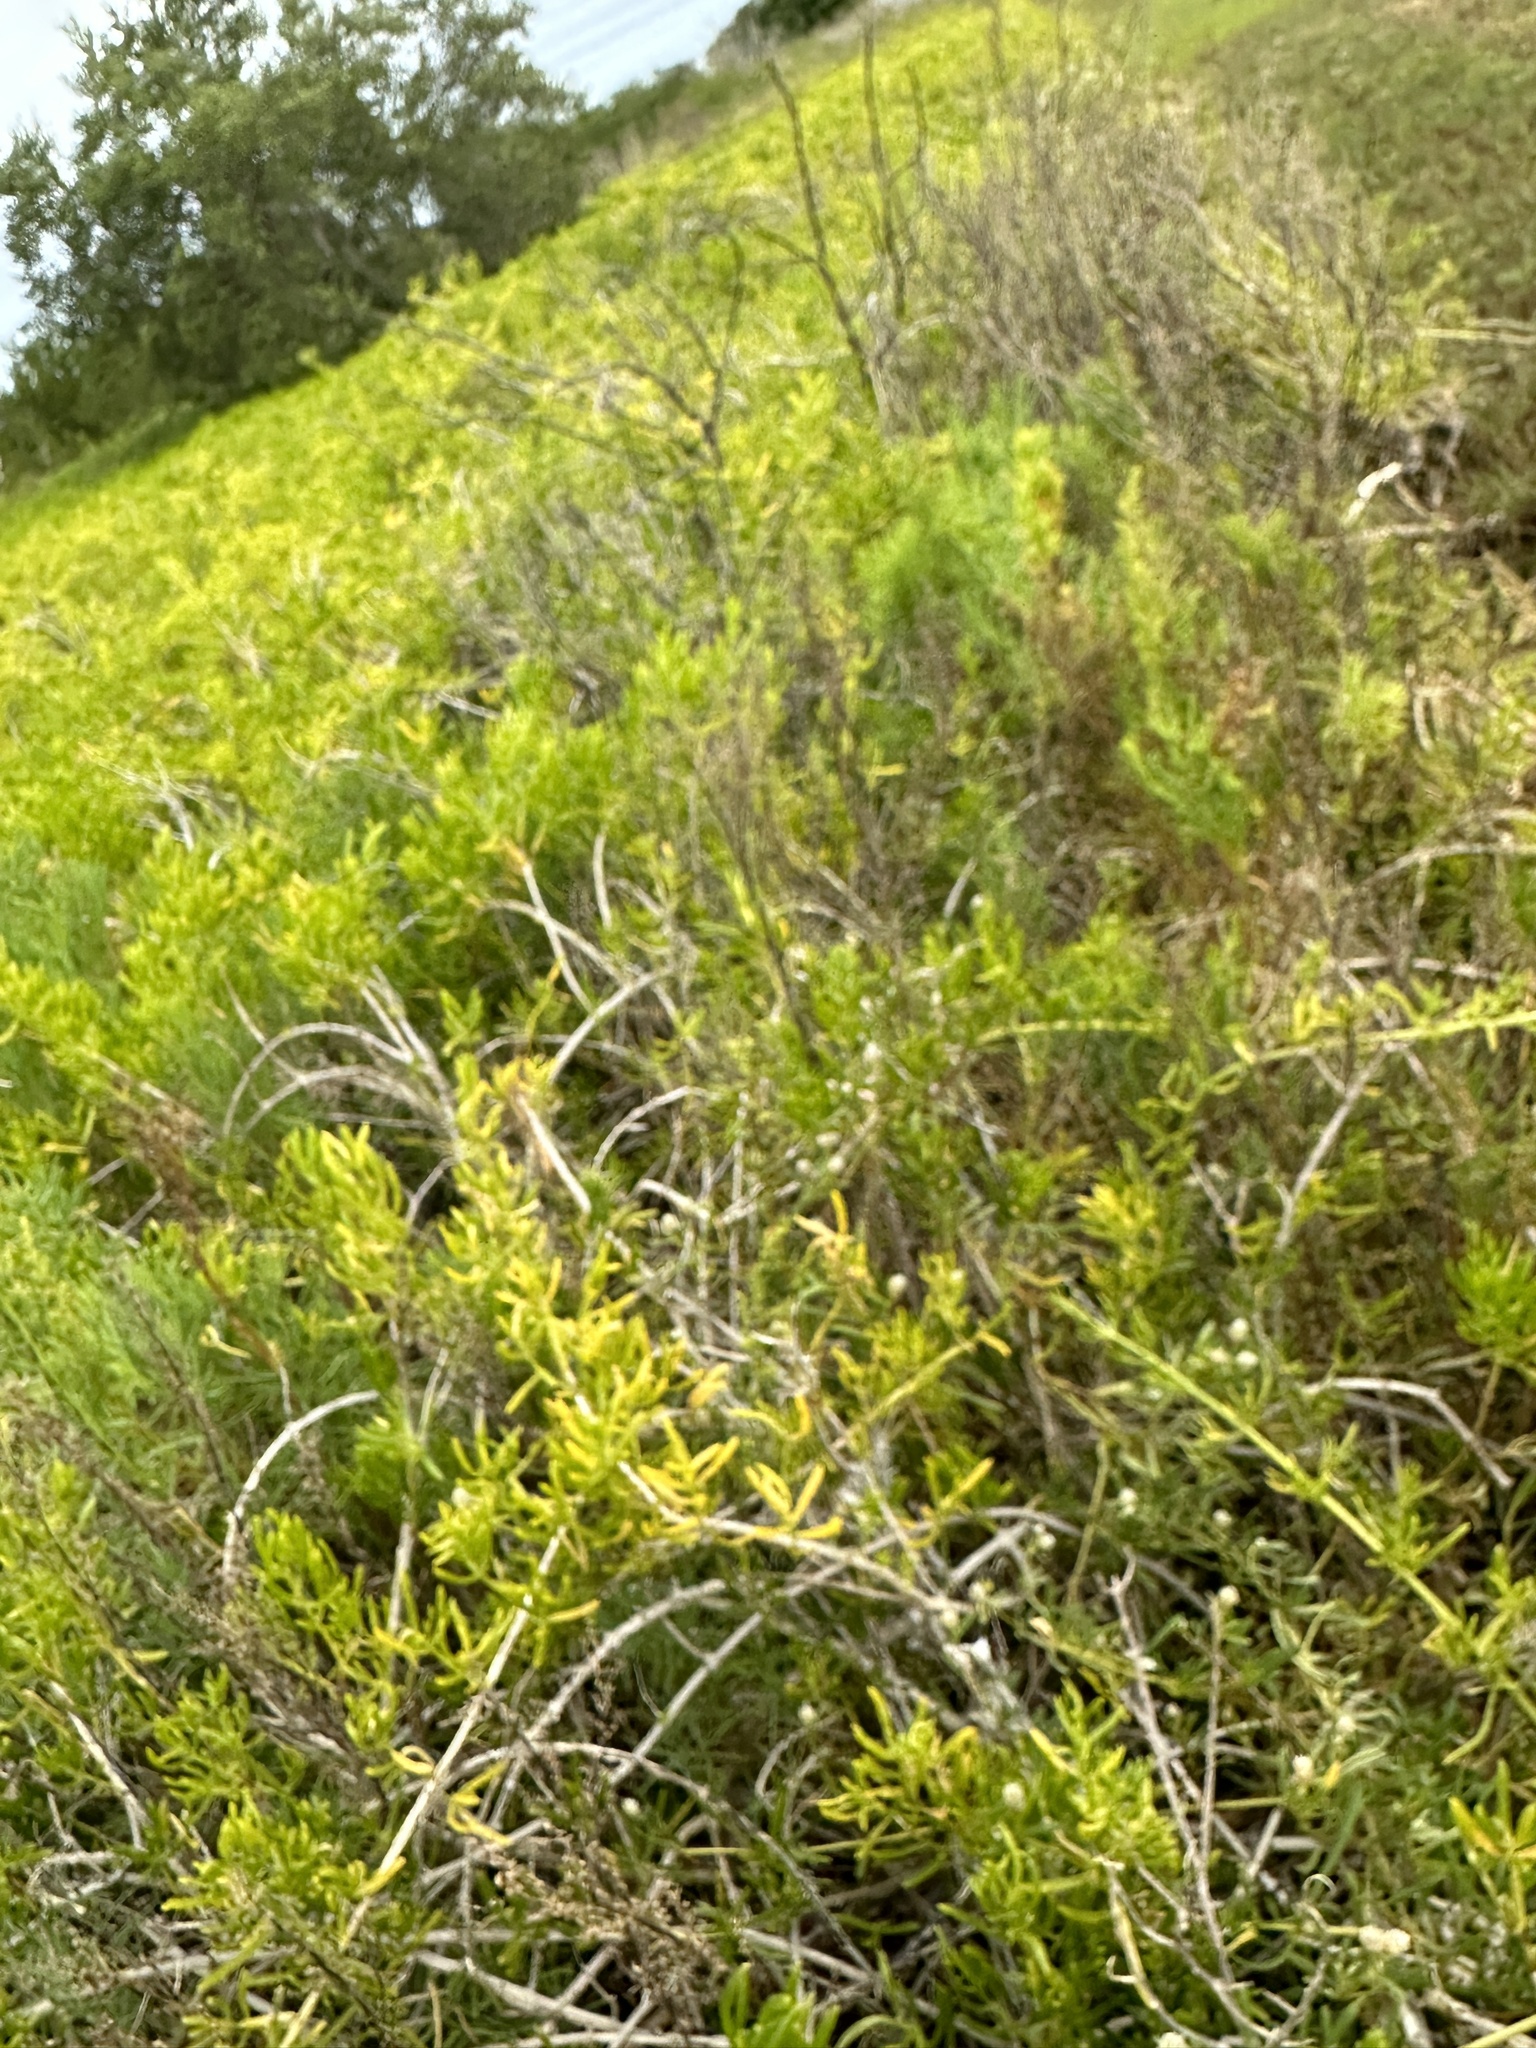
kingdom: Plantae
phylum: Tracheophyta
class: Magnoliopsida
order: Brassicales
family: Bataceae
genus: Batis
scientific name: Batis maritima
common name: Turtleweed
